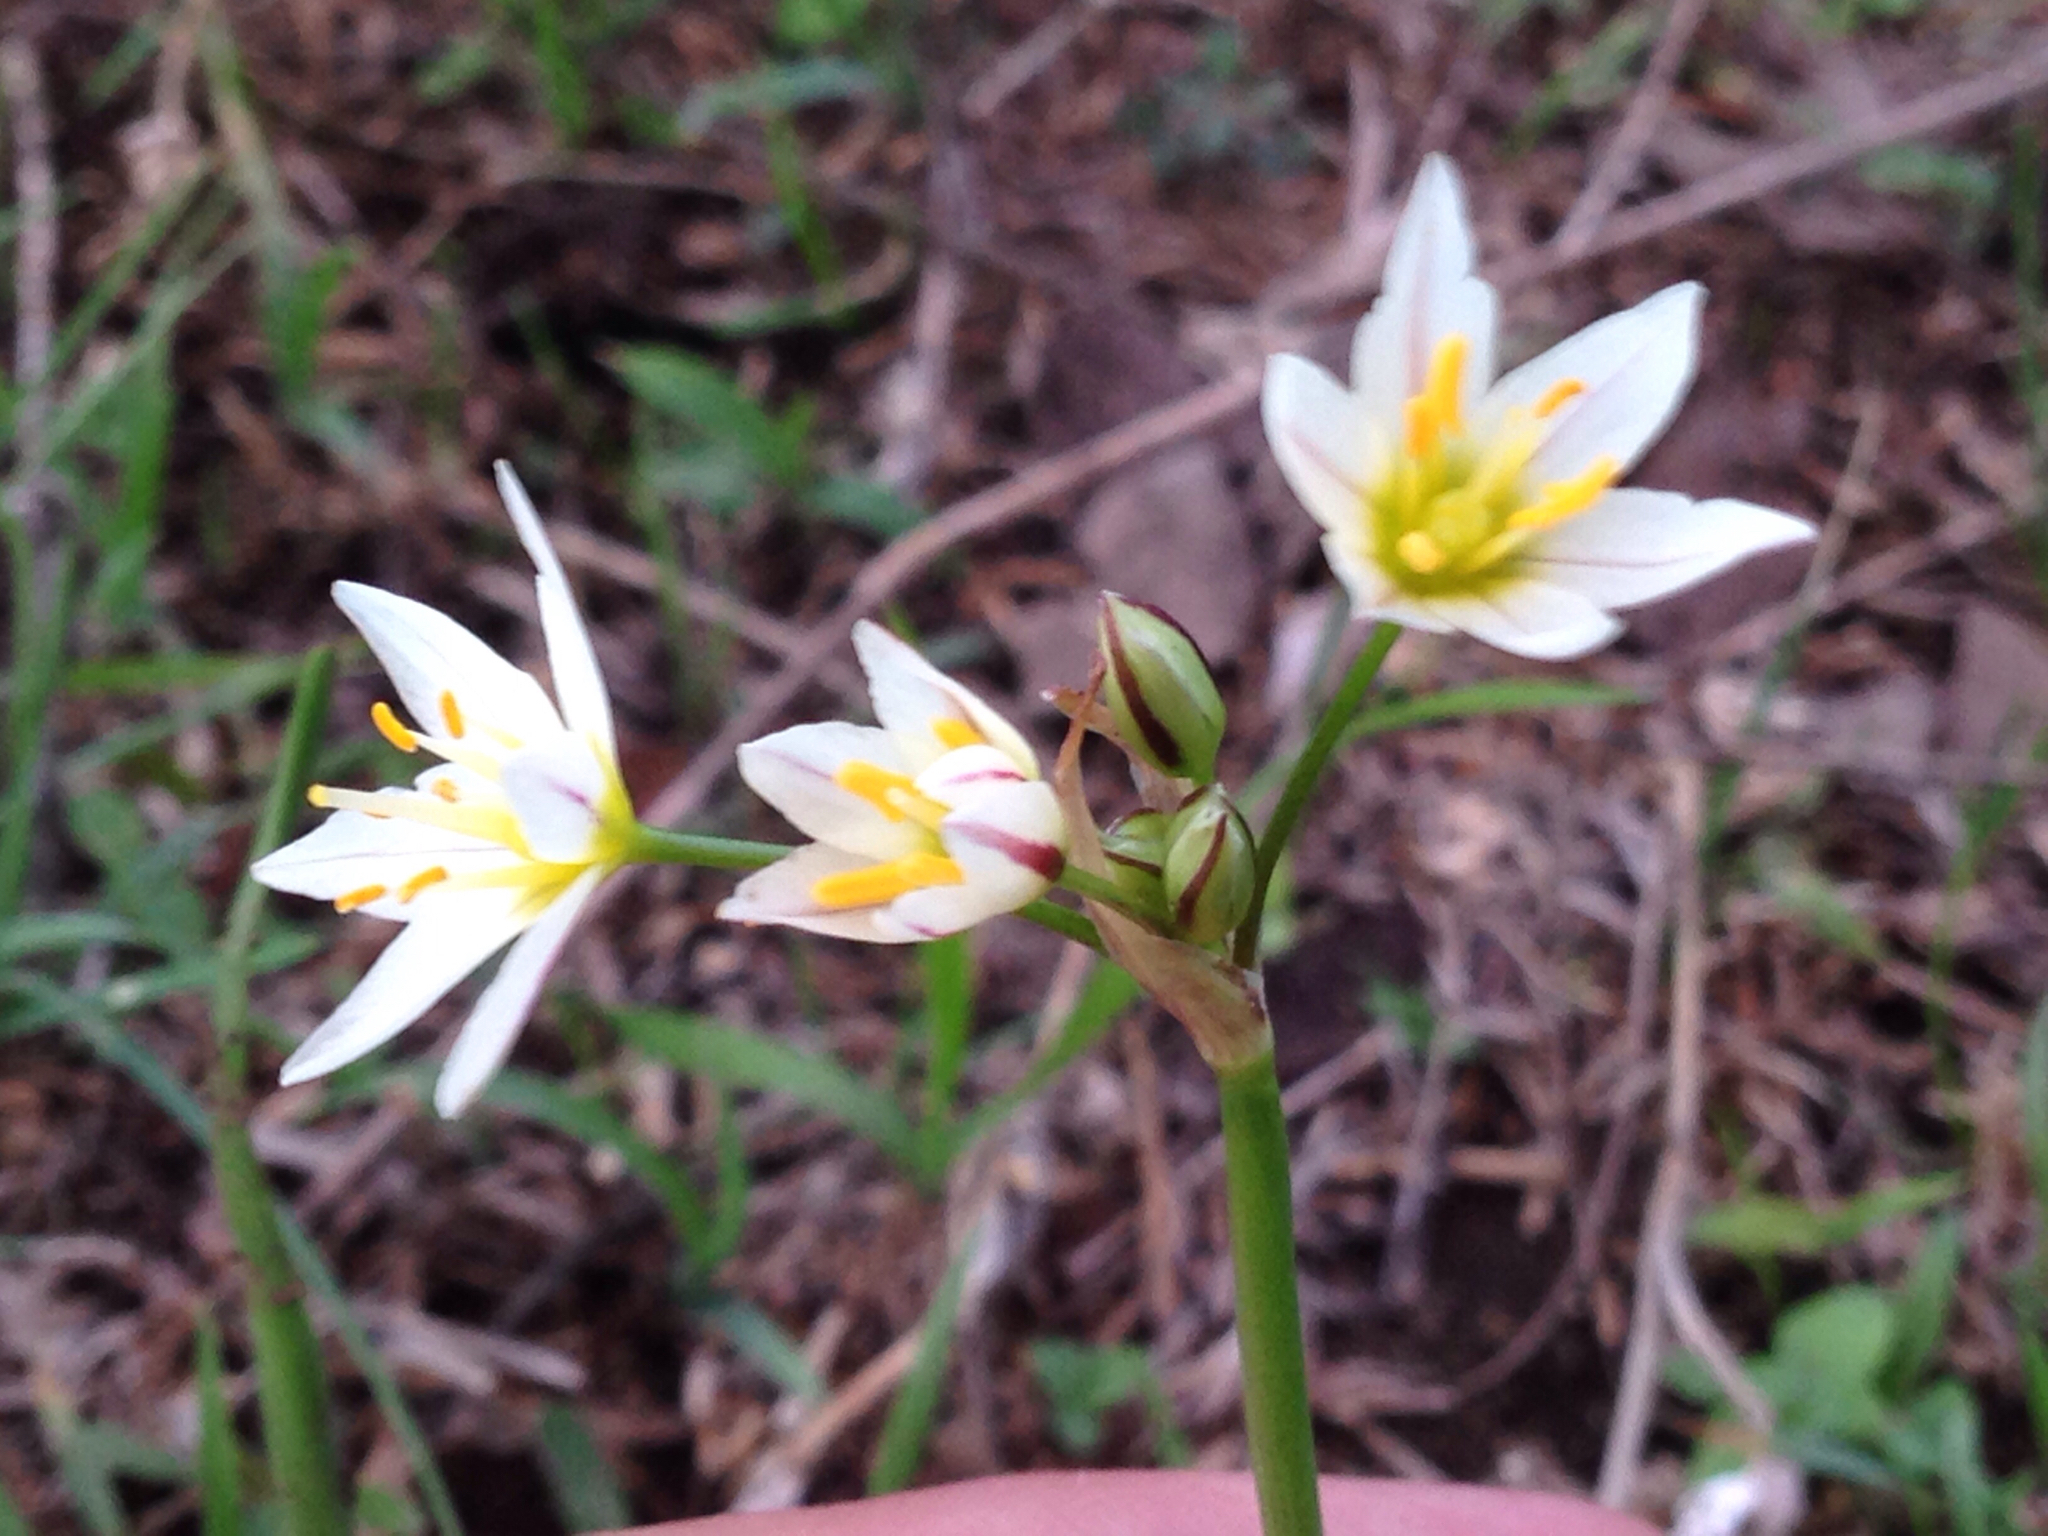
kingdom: Plantae
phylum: Tracheophyta
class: Liliopsida
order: Asparagales
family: Amaryllidaceae
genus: Nothoscordum
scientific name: Nothoscordum bivalve
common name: Crow-poison
